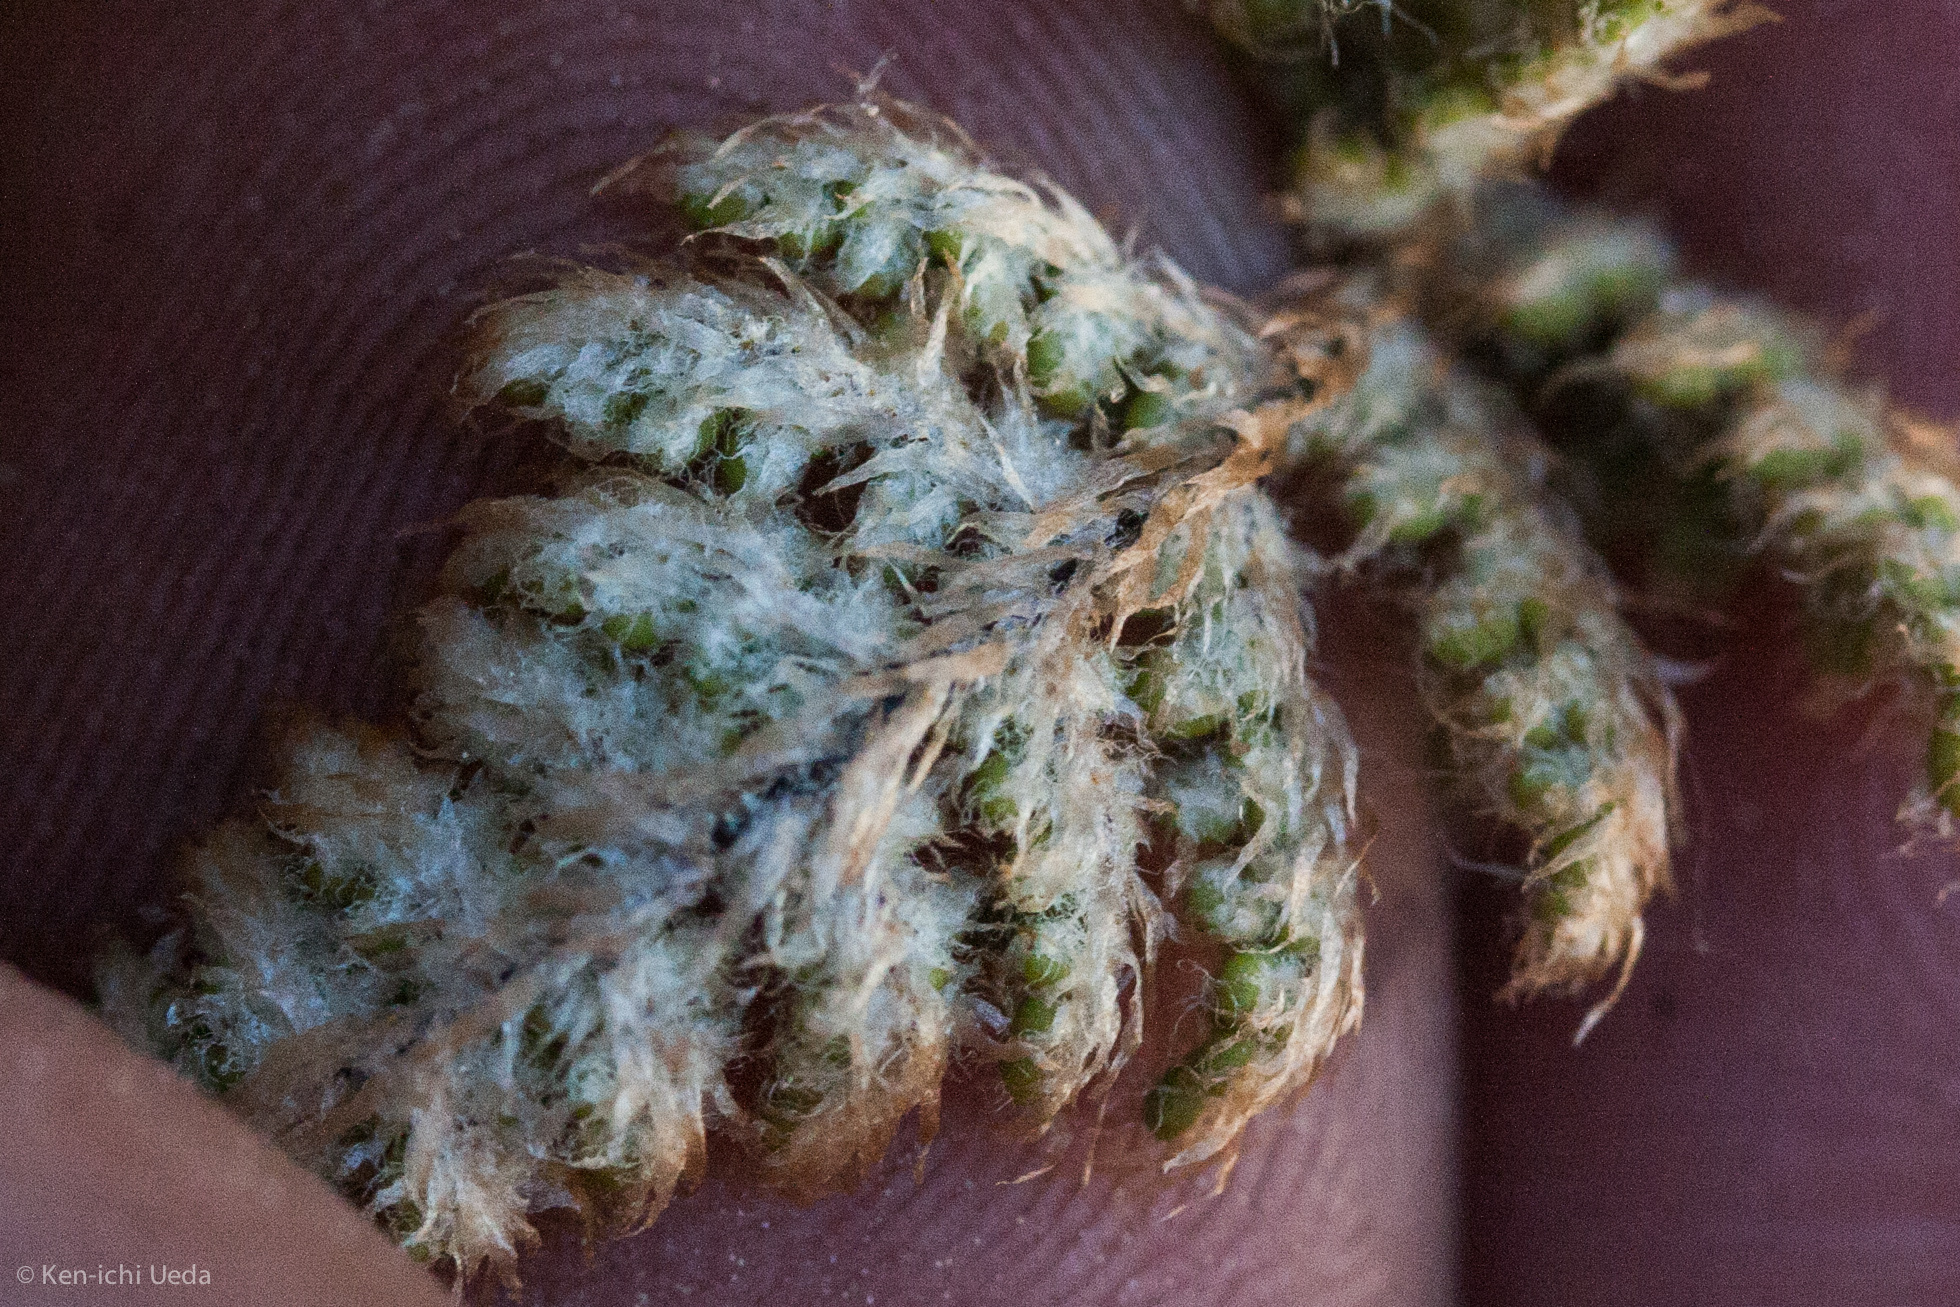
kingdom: Plantae
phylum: Tracheophyta
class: Polypodiopsida
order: Polypodiales
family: Pteridaceae
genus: Myriopteris
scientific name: Myriopteris intertexta
